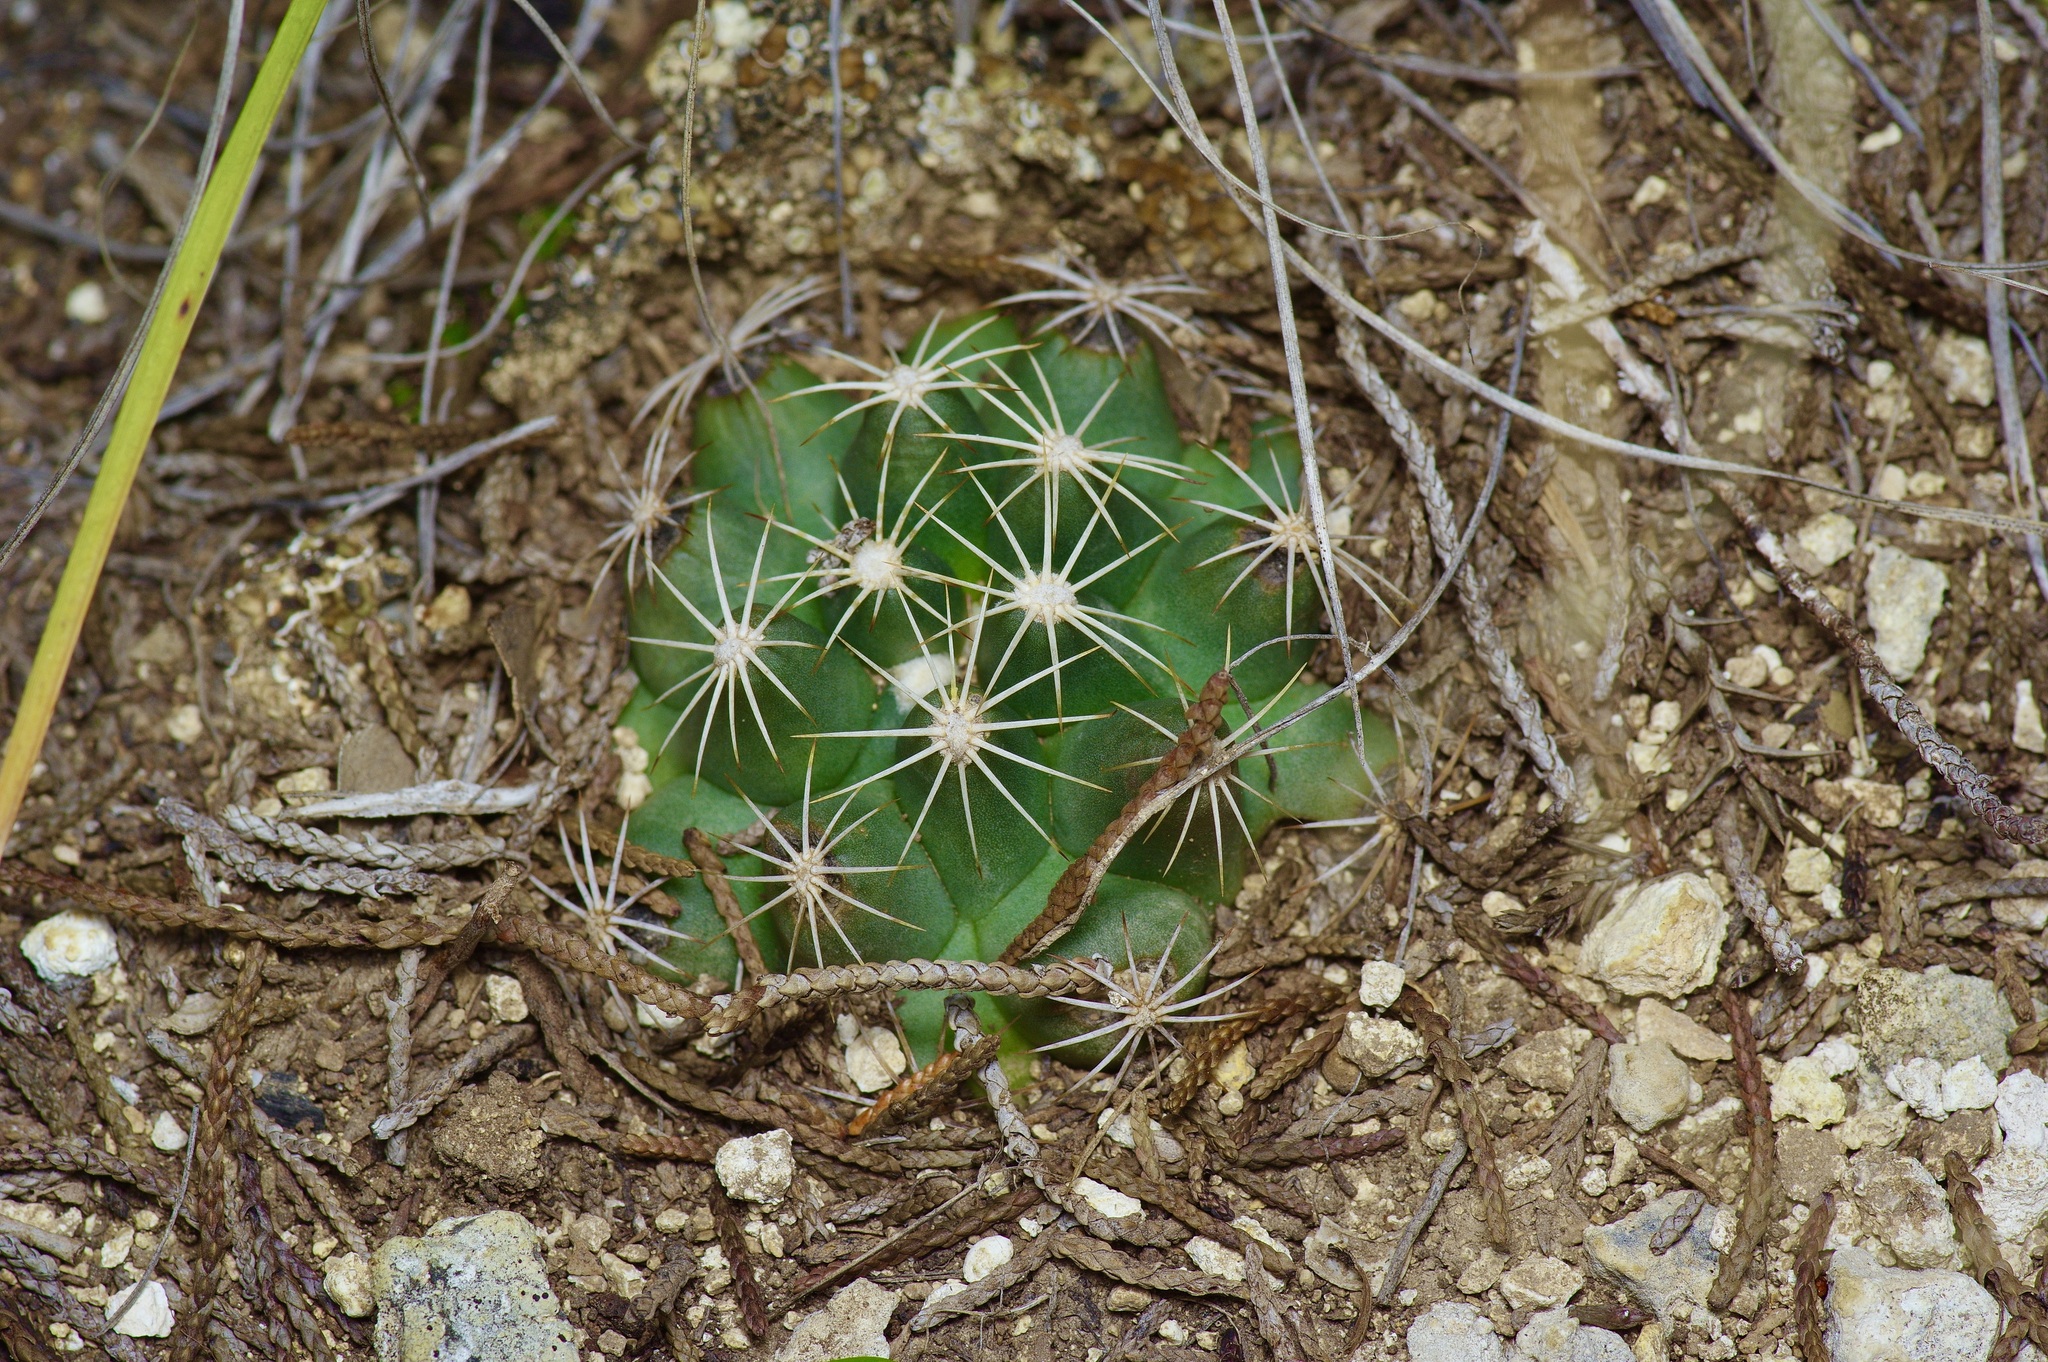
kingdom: Plantae
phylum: Tracheophyta
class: Magnoliopsida
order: Caryophyllales
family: Cactaceae
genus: Coryphantha
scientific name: Coryphantha sulcata
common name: Finger cactus
